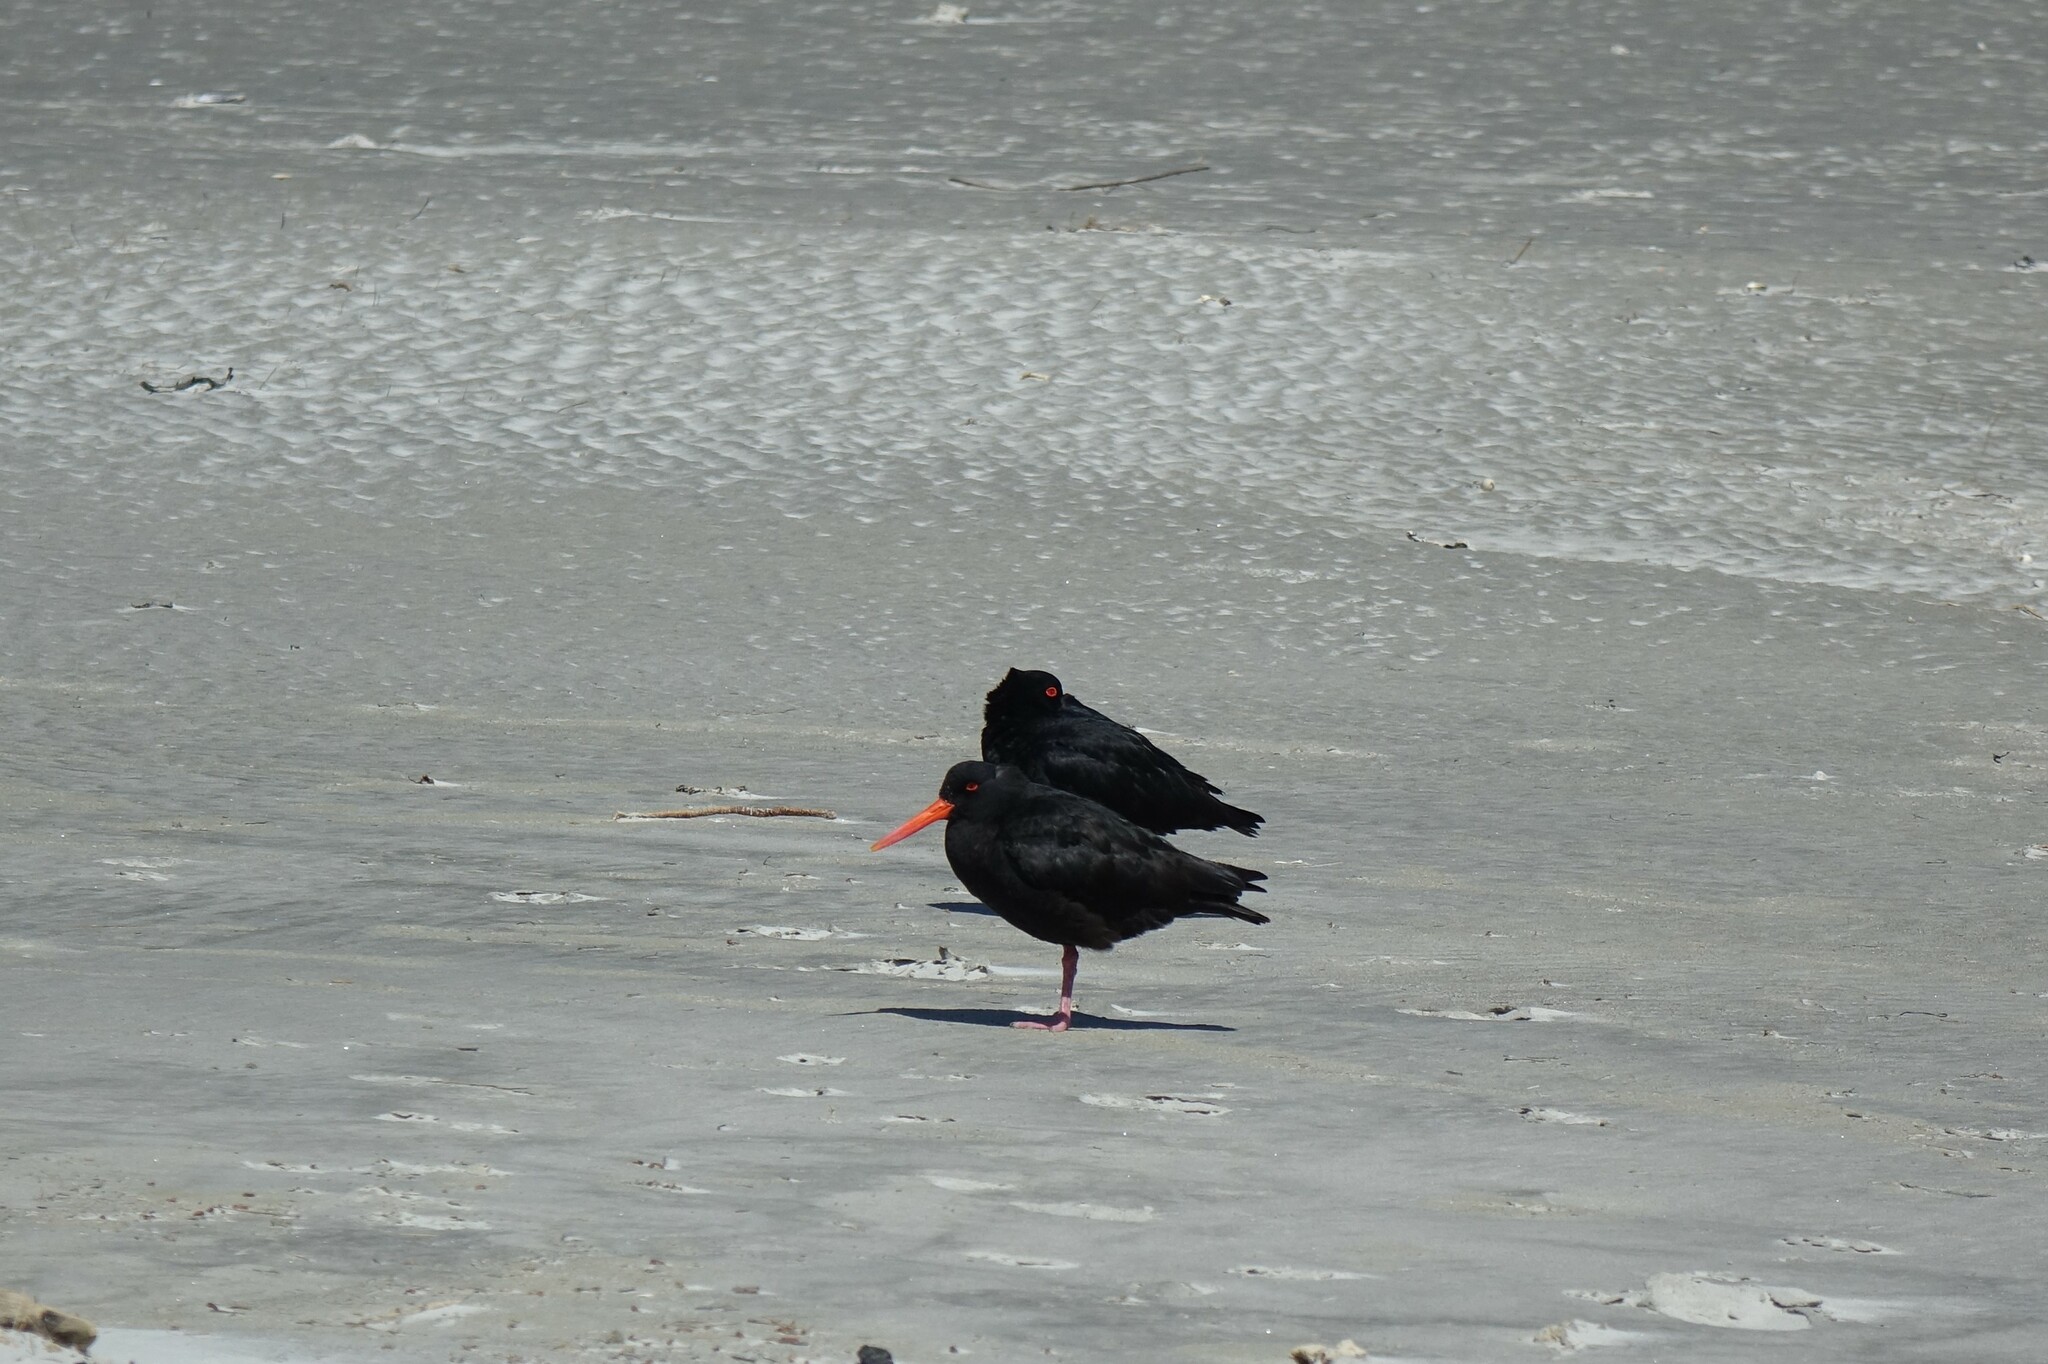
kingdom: Animalia
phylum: Chordata
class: Aves
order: Charadriiformes
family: Haematopodidae
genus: Haematopus
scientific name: Haematopus unicolor
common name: Variable oystercatcher
